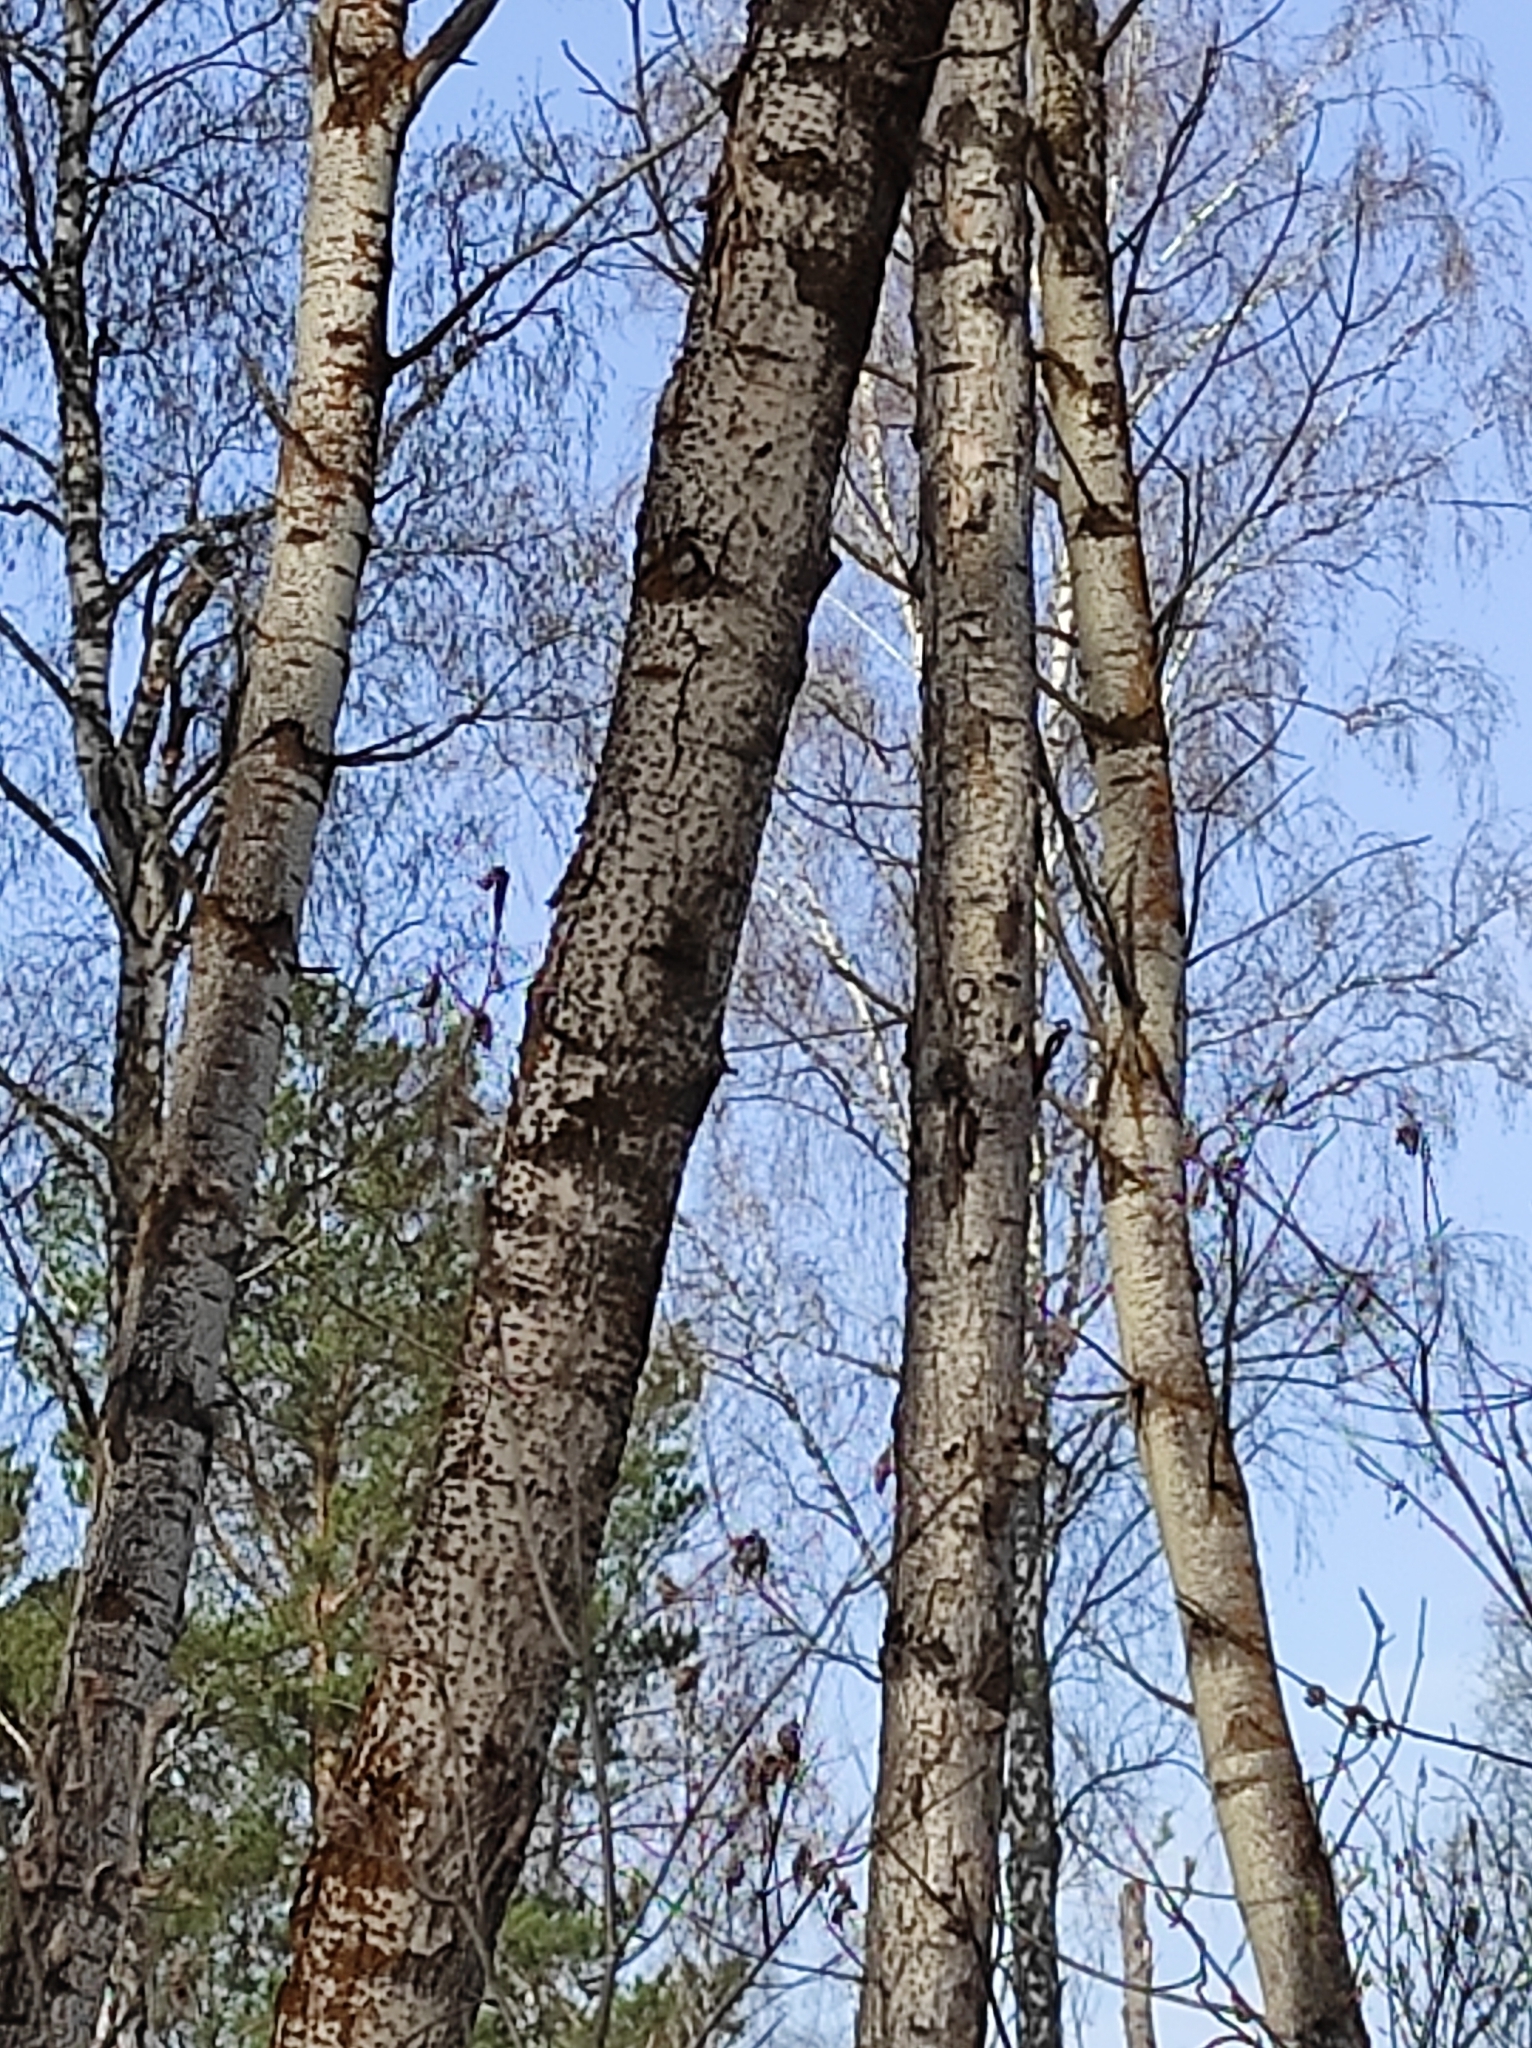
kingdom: Plantae
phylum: Tracheophyta
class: Magnoliopsida
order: Malpighiales
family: Salicaceae
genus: Populus
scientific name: Populus tremula
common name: European aspen
